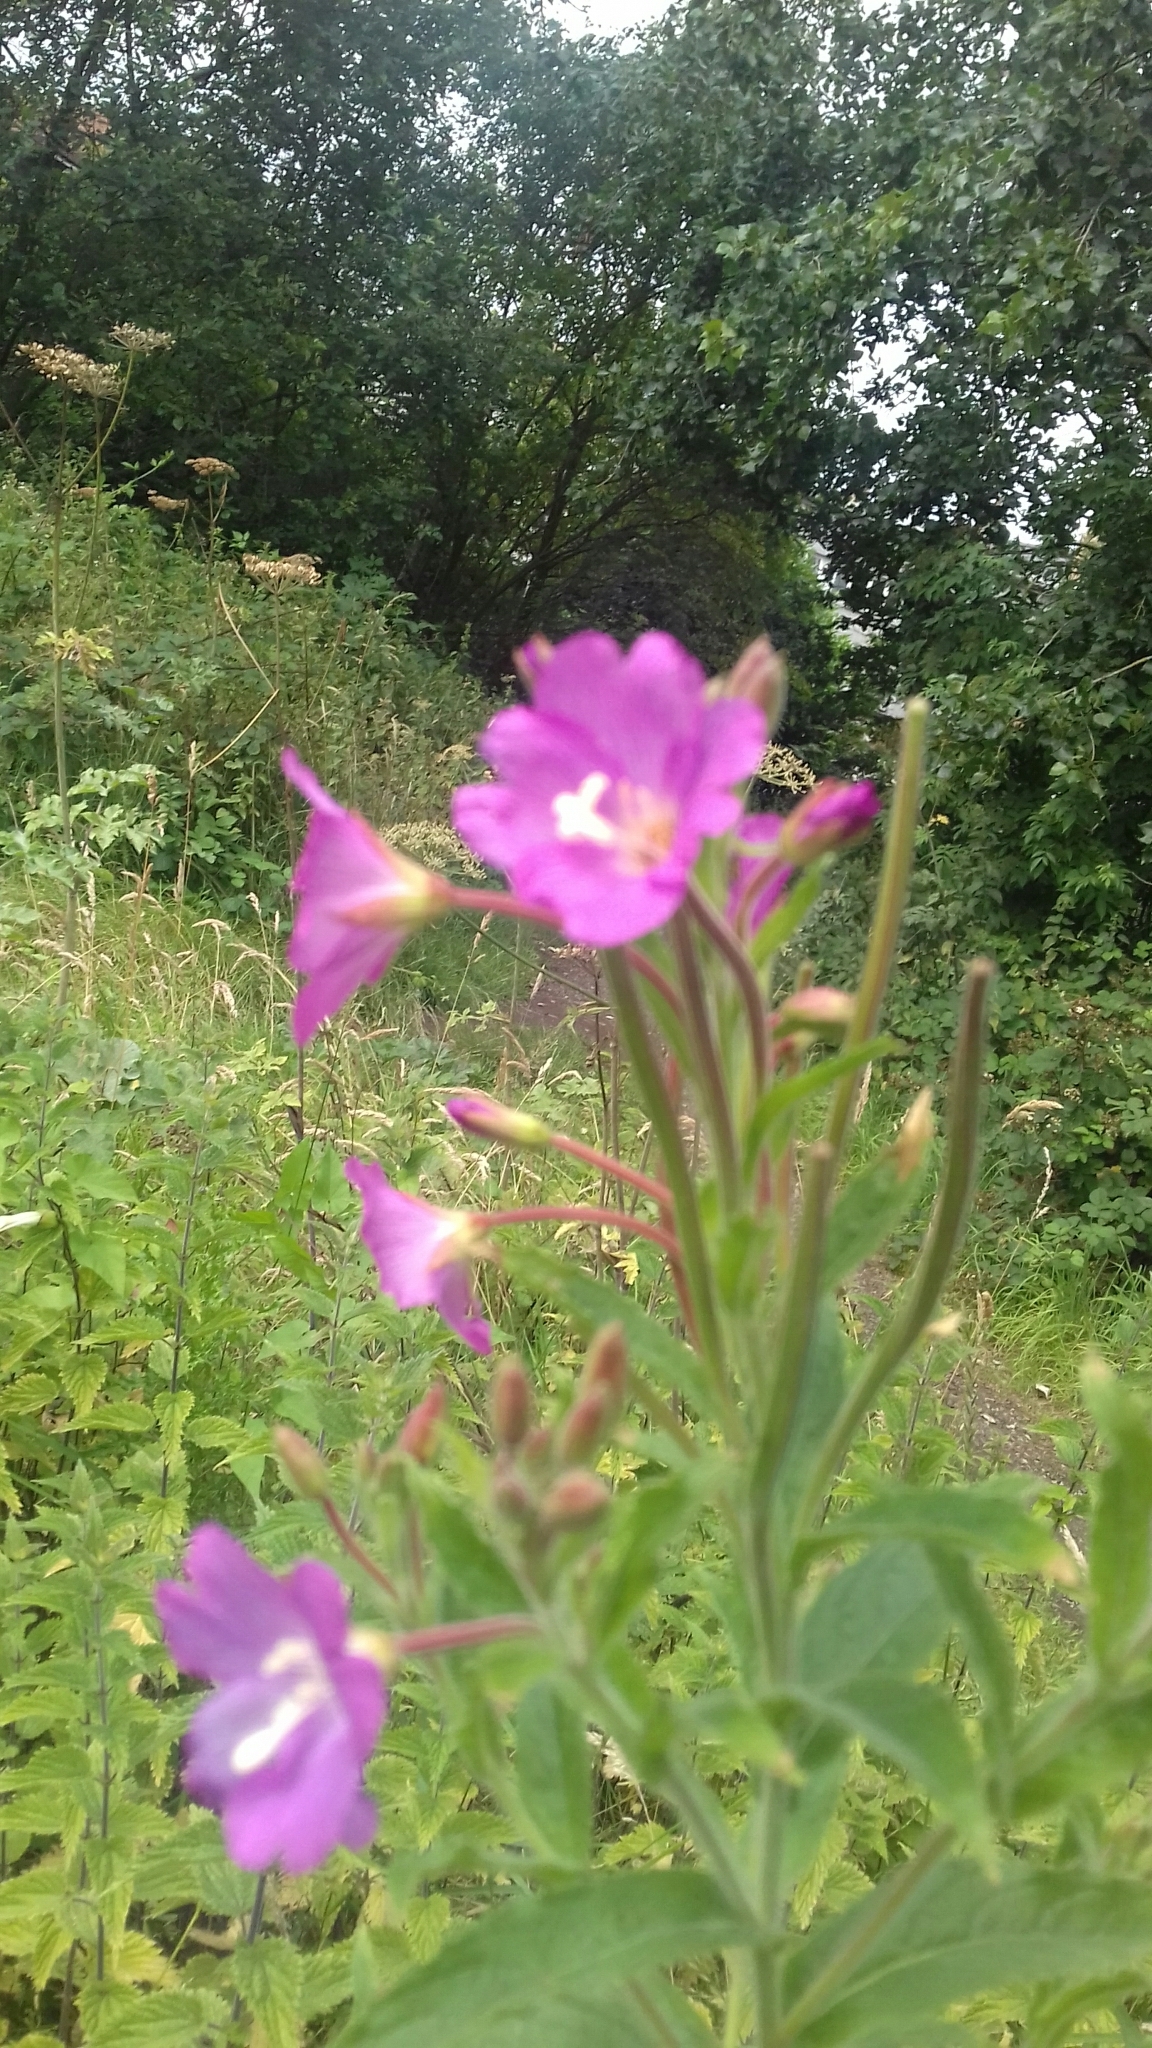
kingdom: Plantae
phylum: Tracheophyta
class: Magnoliopsida
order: Myrtales
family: Onagraceae
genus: Epilobium
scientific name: Epilobium hirsutum
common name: Great willowherb
